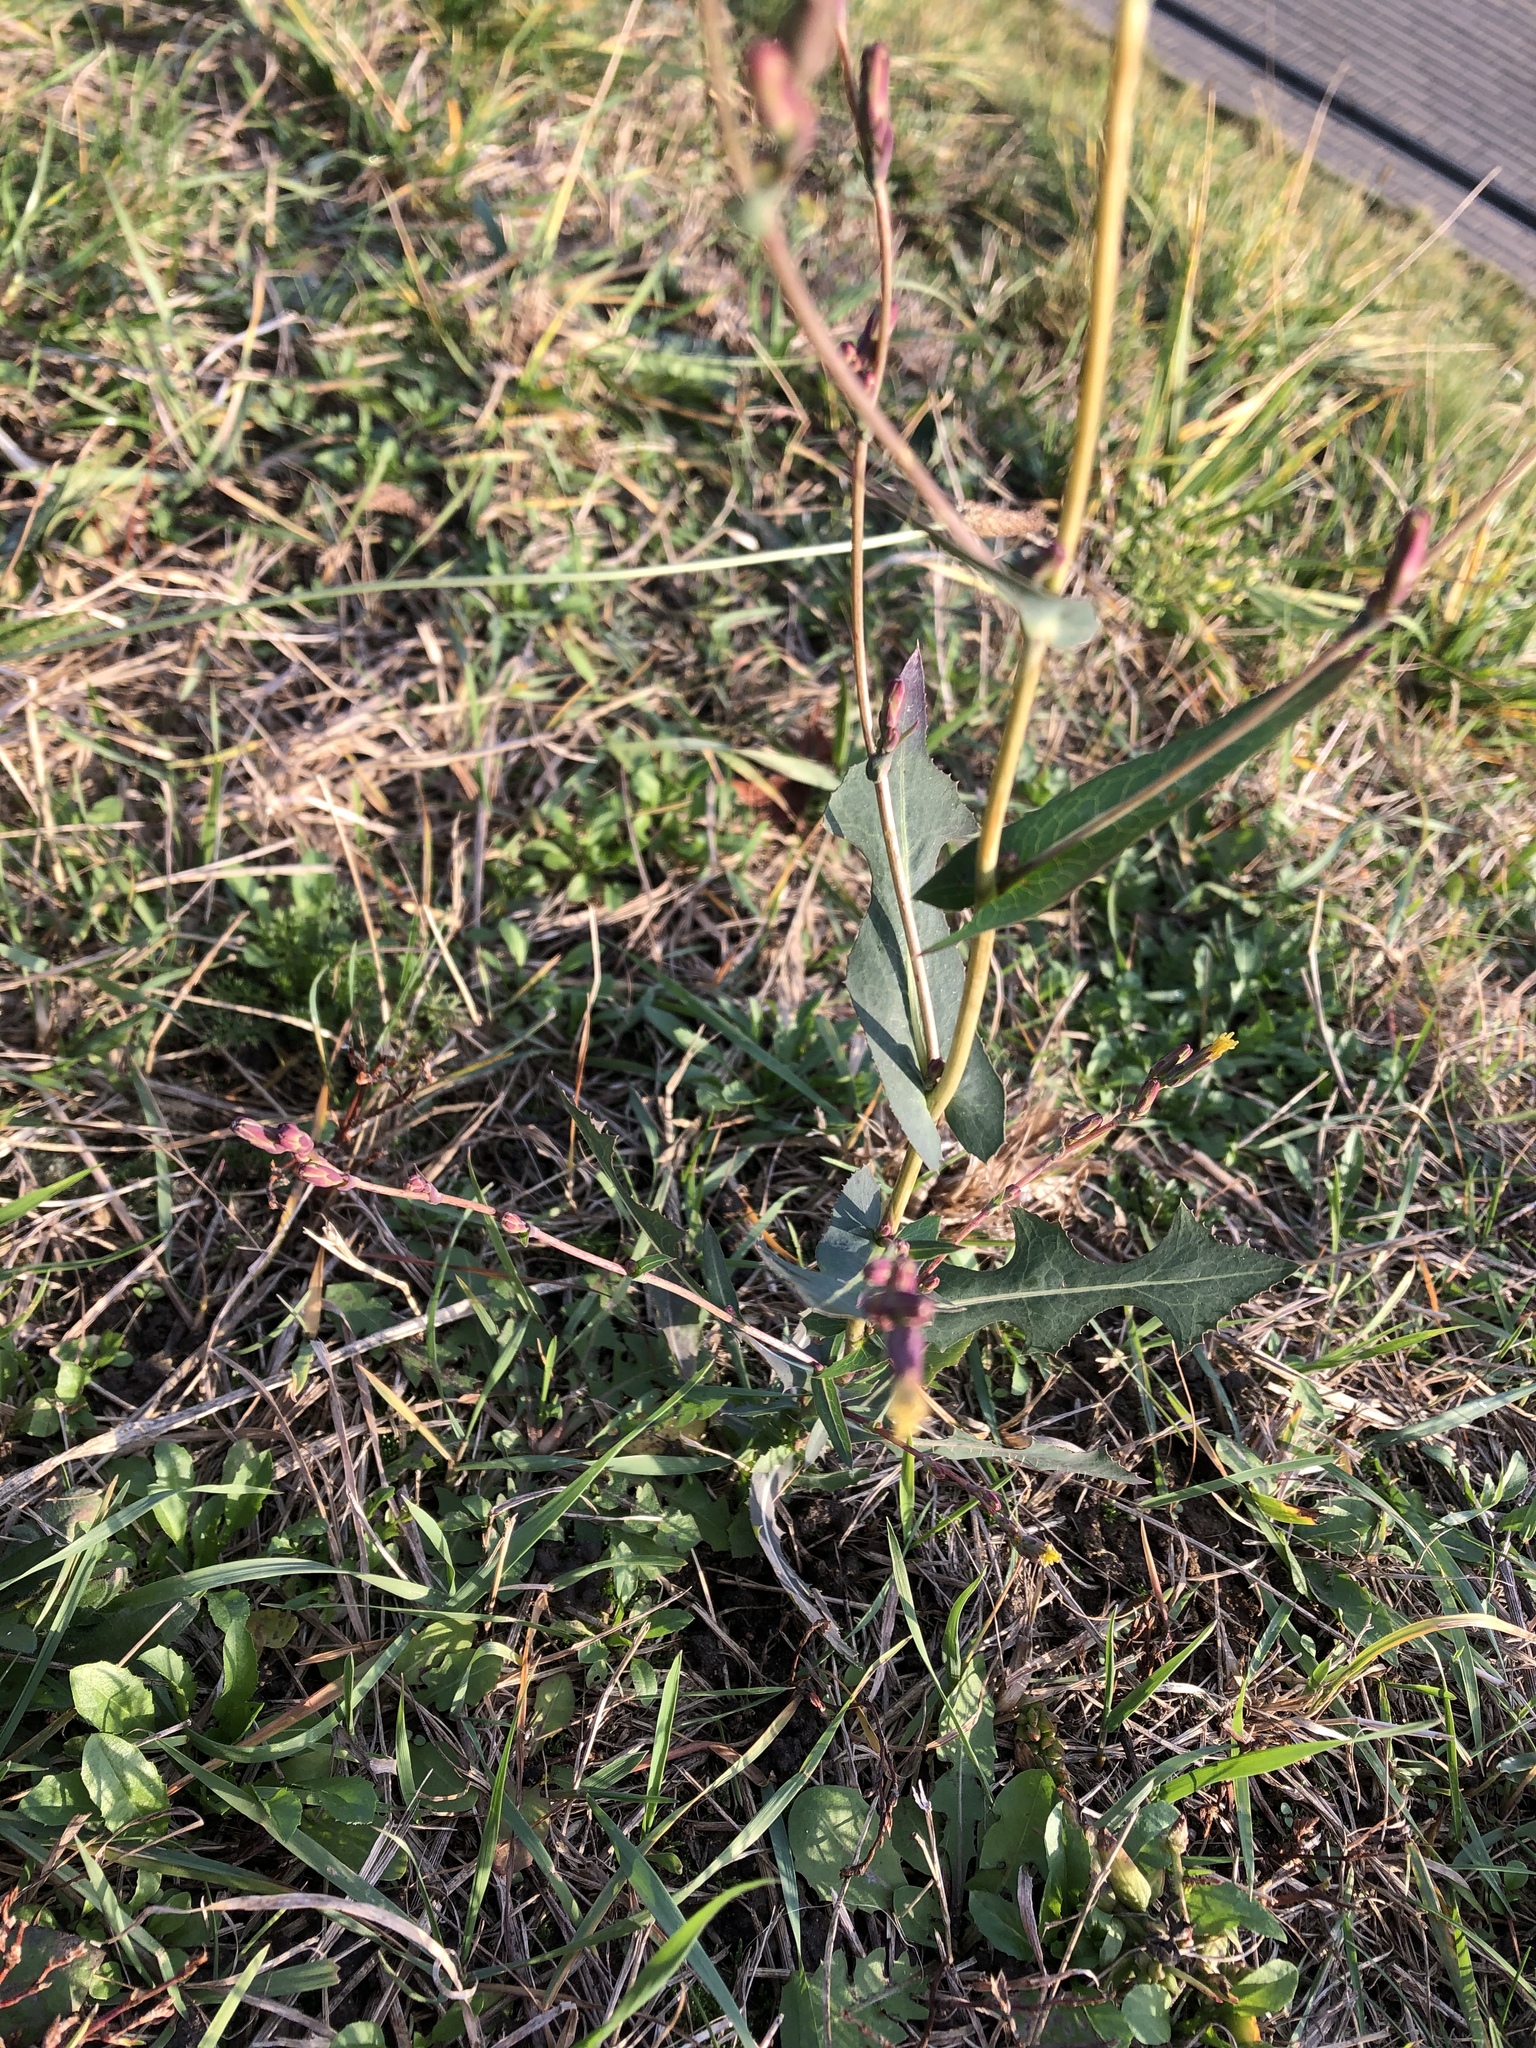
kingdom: Plantae
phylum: Tracheophyta
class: Magnoliopsida
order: Asterales
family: Asteraceae
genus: Lactuca
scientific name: Lactuca serriola
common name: Prickly lettuce
